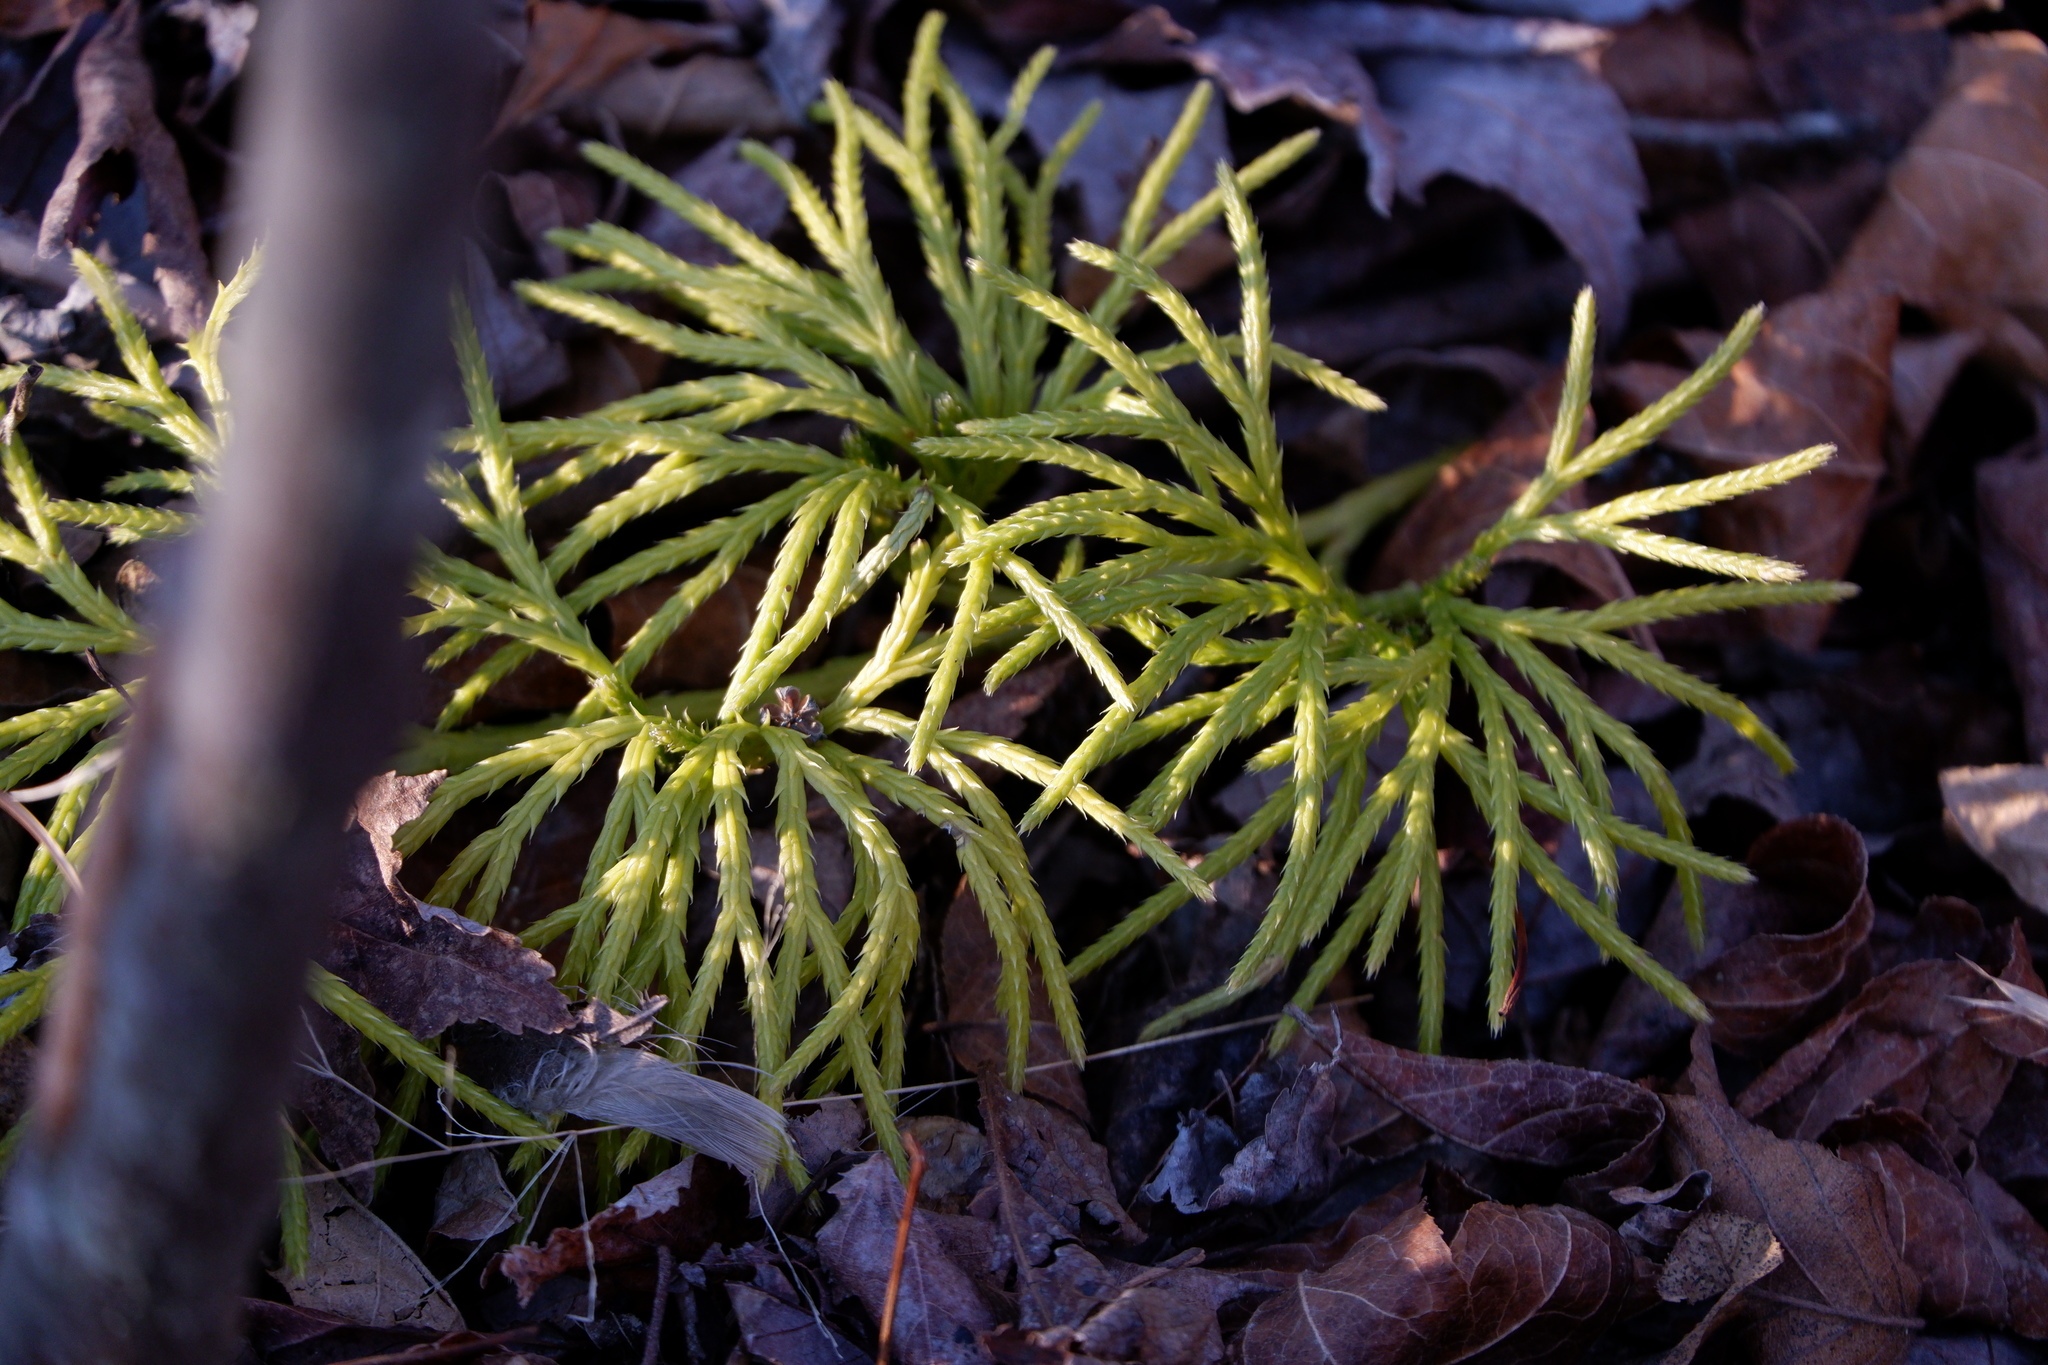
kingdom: Plantae
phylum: Tracheophyta
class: Lycopodiopsida
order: Lycopodiales
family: Lycopodiaceae
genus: Diphasiastrum
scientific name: Diphasiastrum digitatum
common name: Southern running-pine
